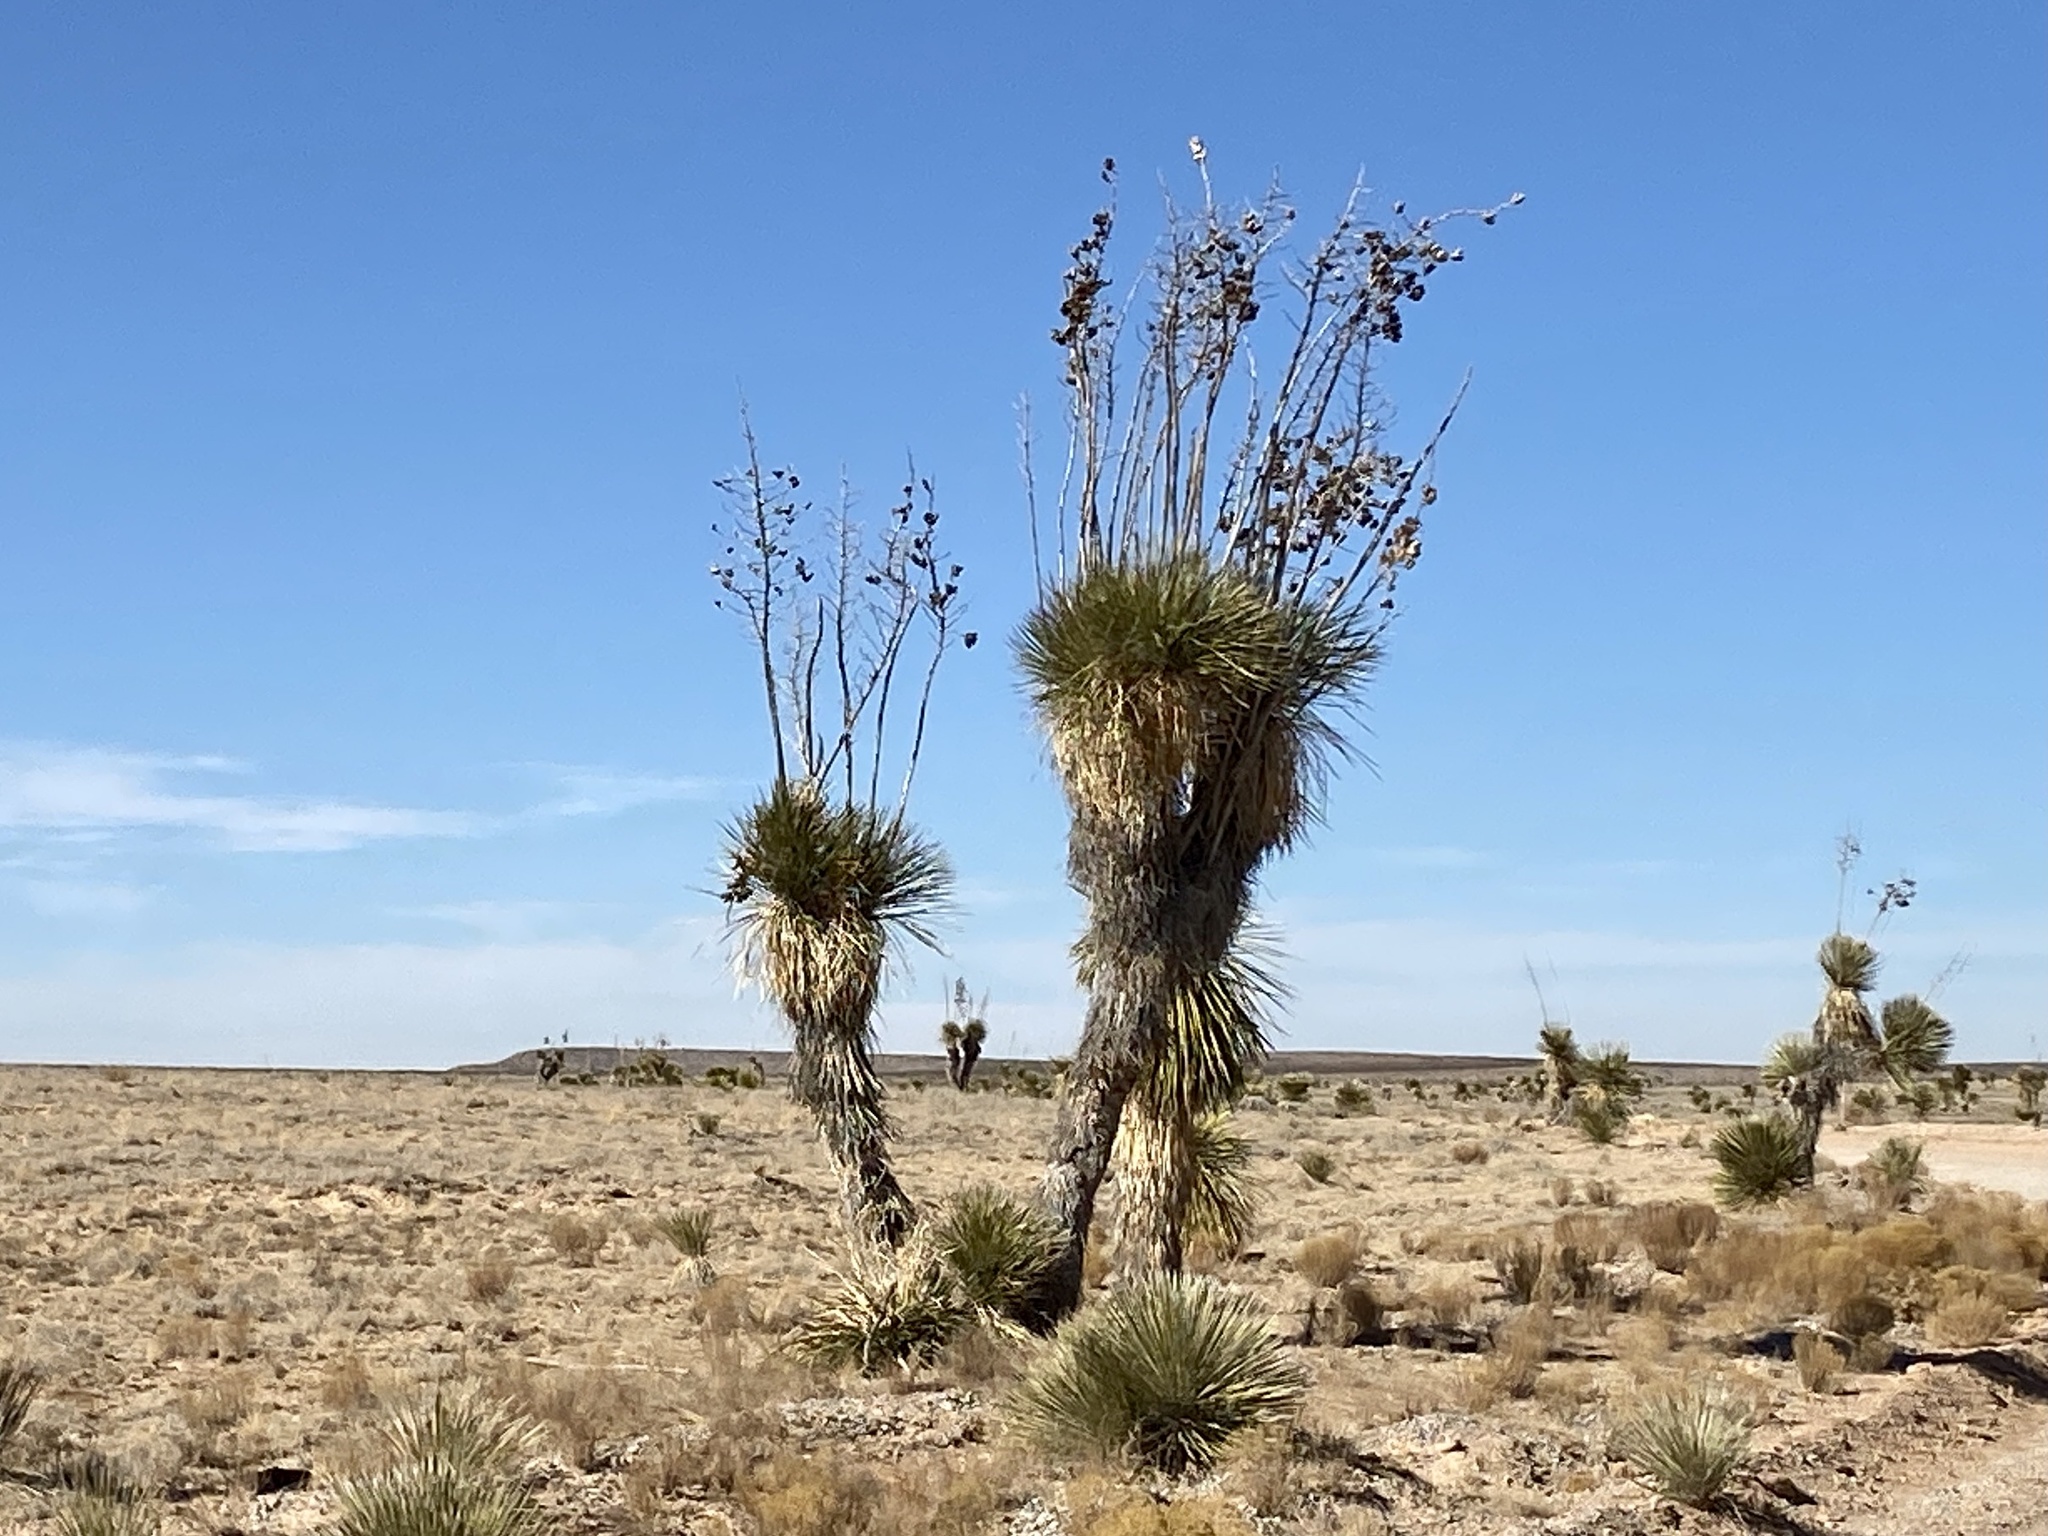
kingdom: Plantae
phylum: Tracheophyta
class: Liliopsida
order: Asparagales
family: Asparagaceae
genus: Yucca
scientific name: Yucca elata
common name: Palmella
